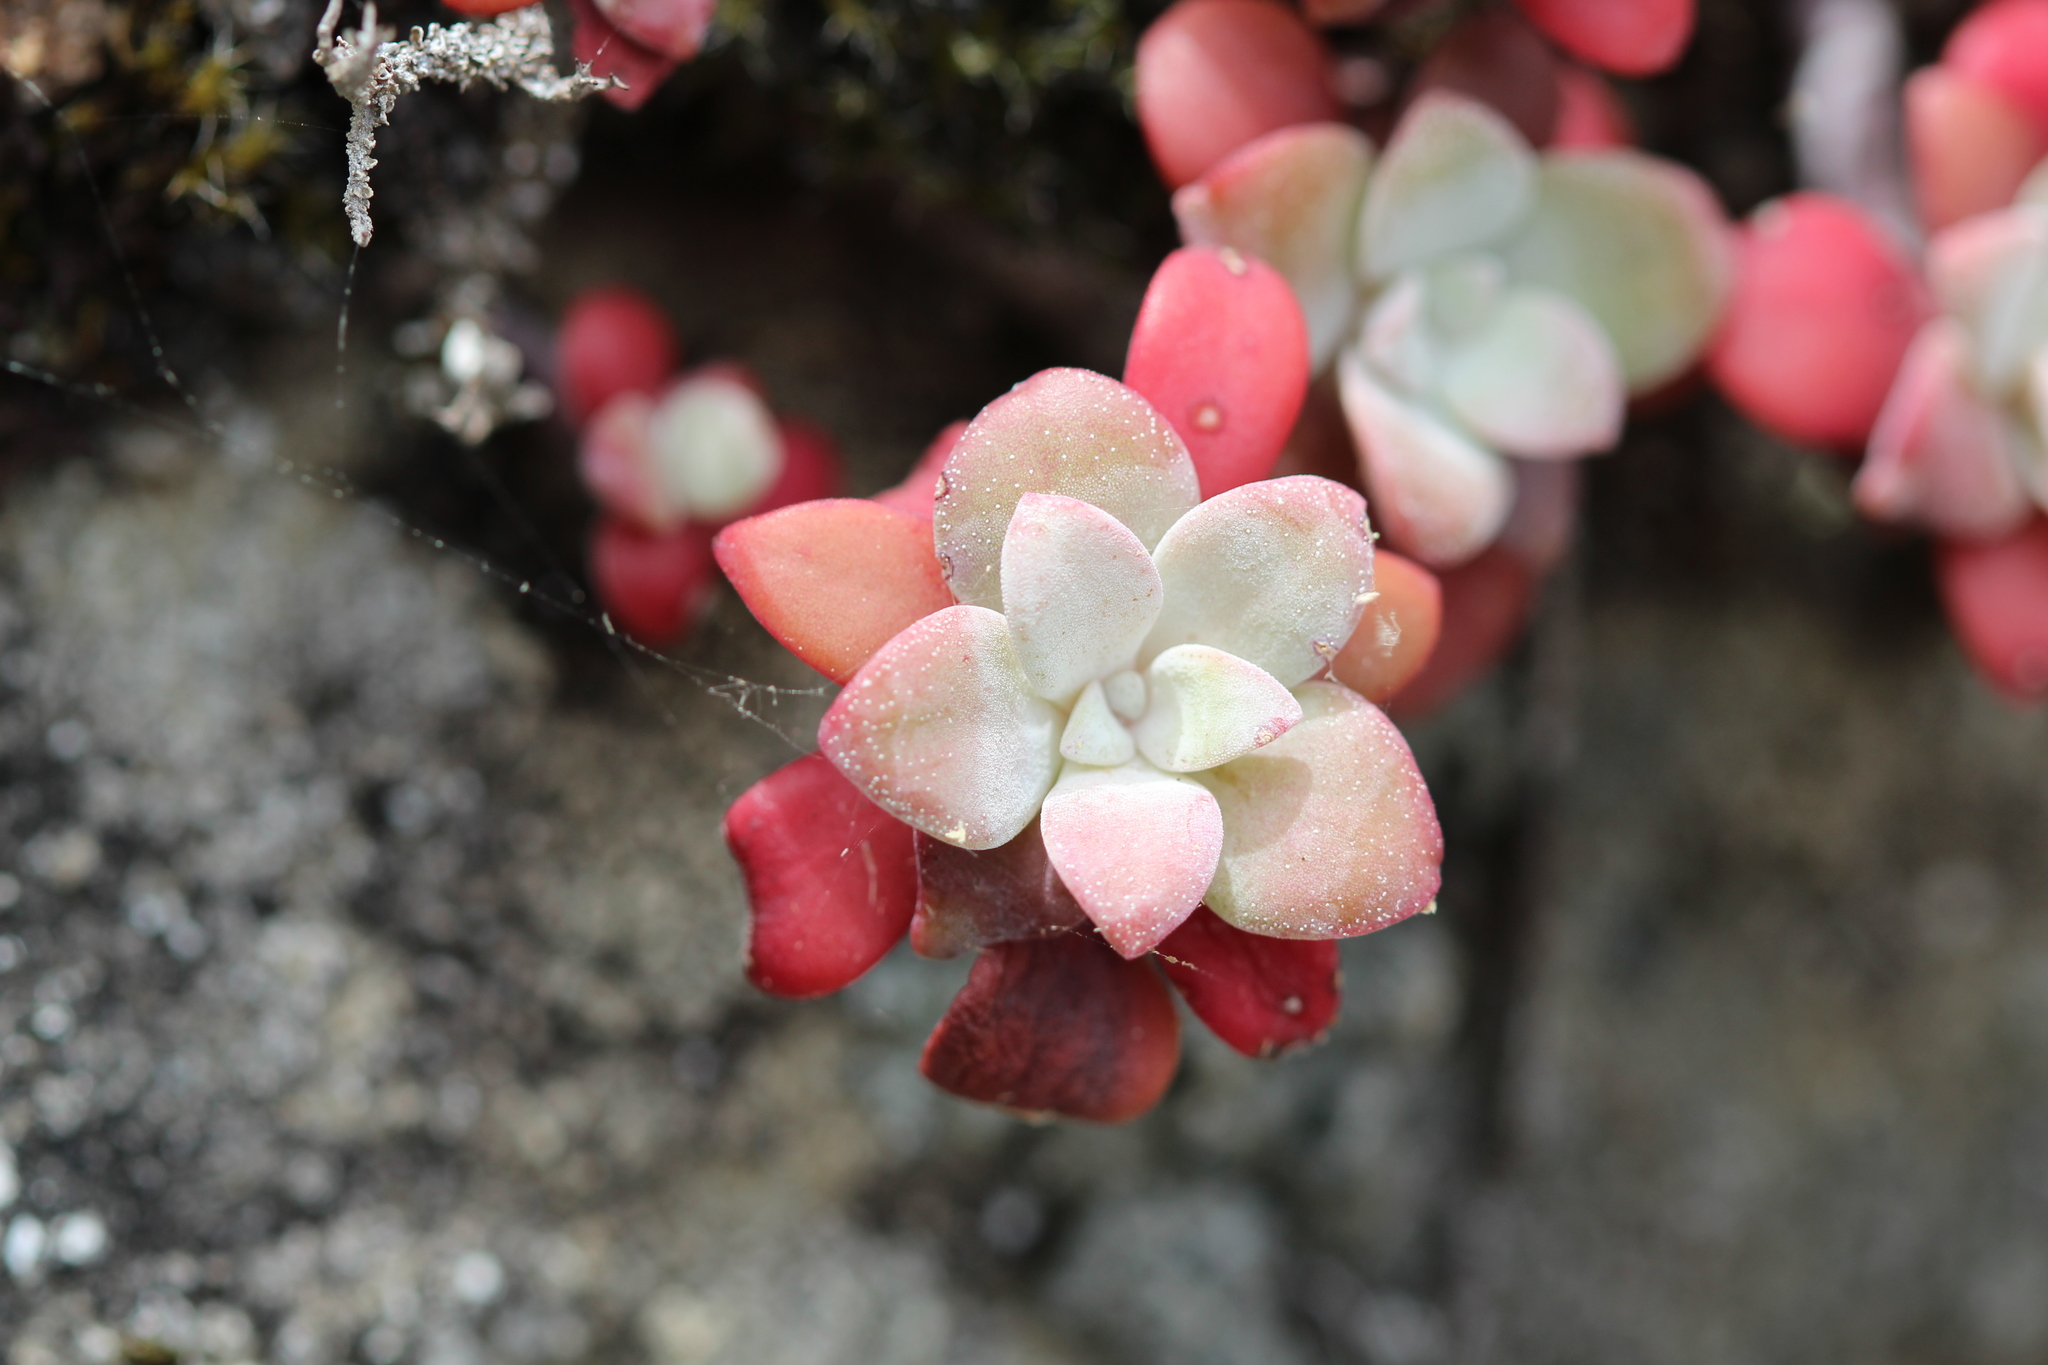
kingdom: Plantae
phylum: Tracheophyta
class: Magnoliopsida
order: Saxifragales
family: Crassulaceae
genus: Sedum
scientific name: Sedum spathulifolium
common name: Colorado stonecrop
